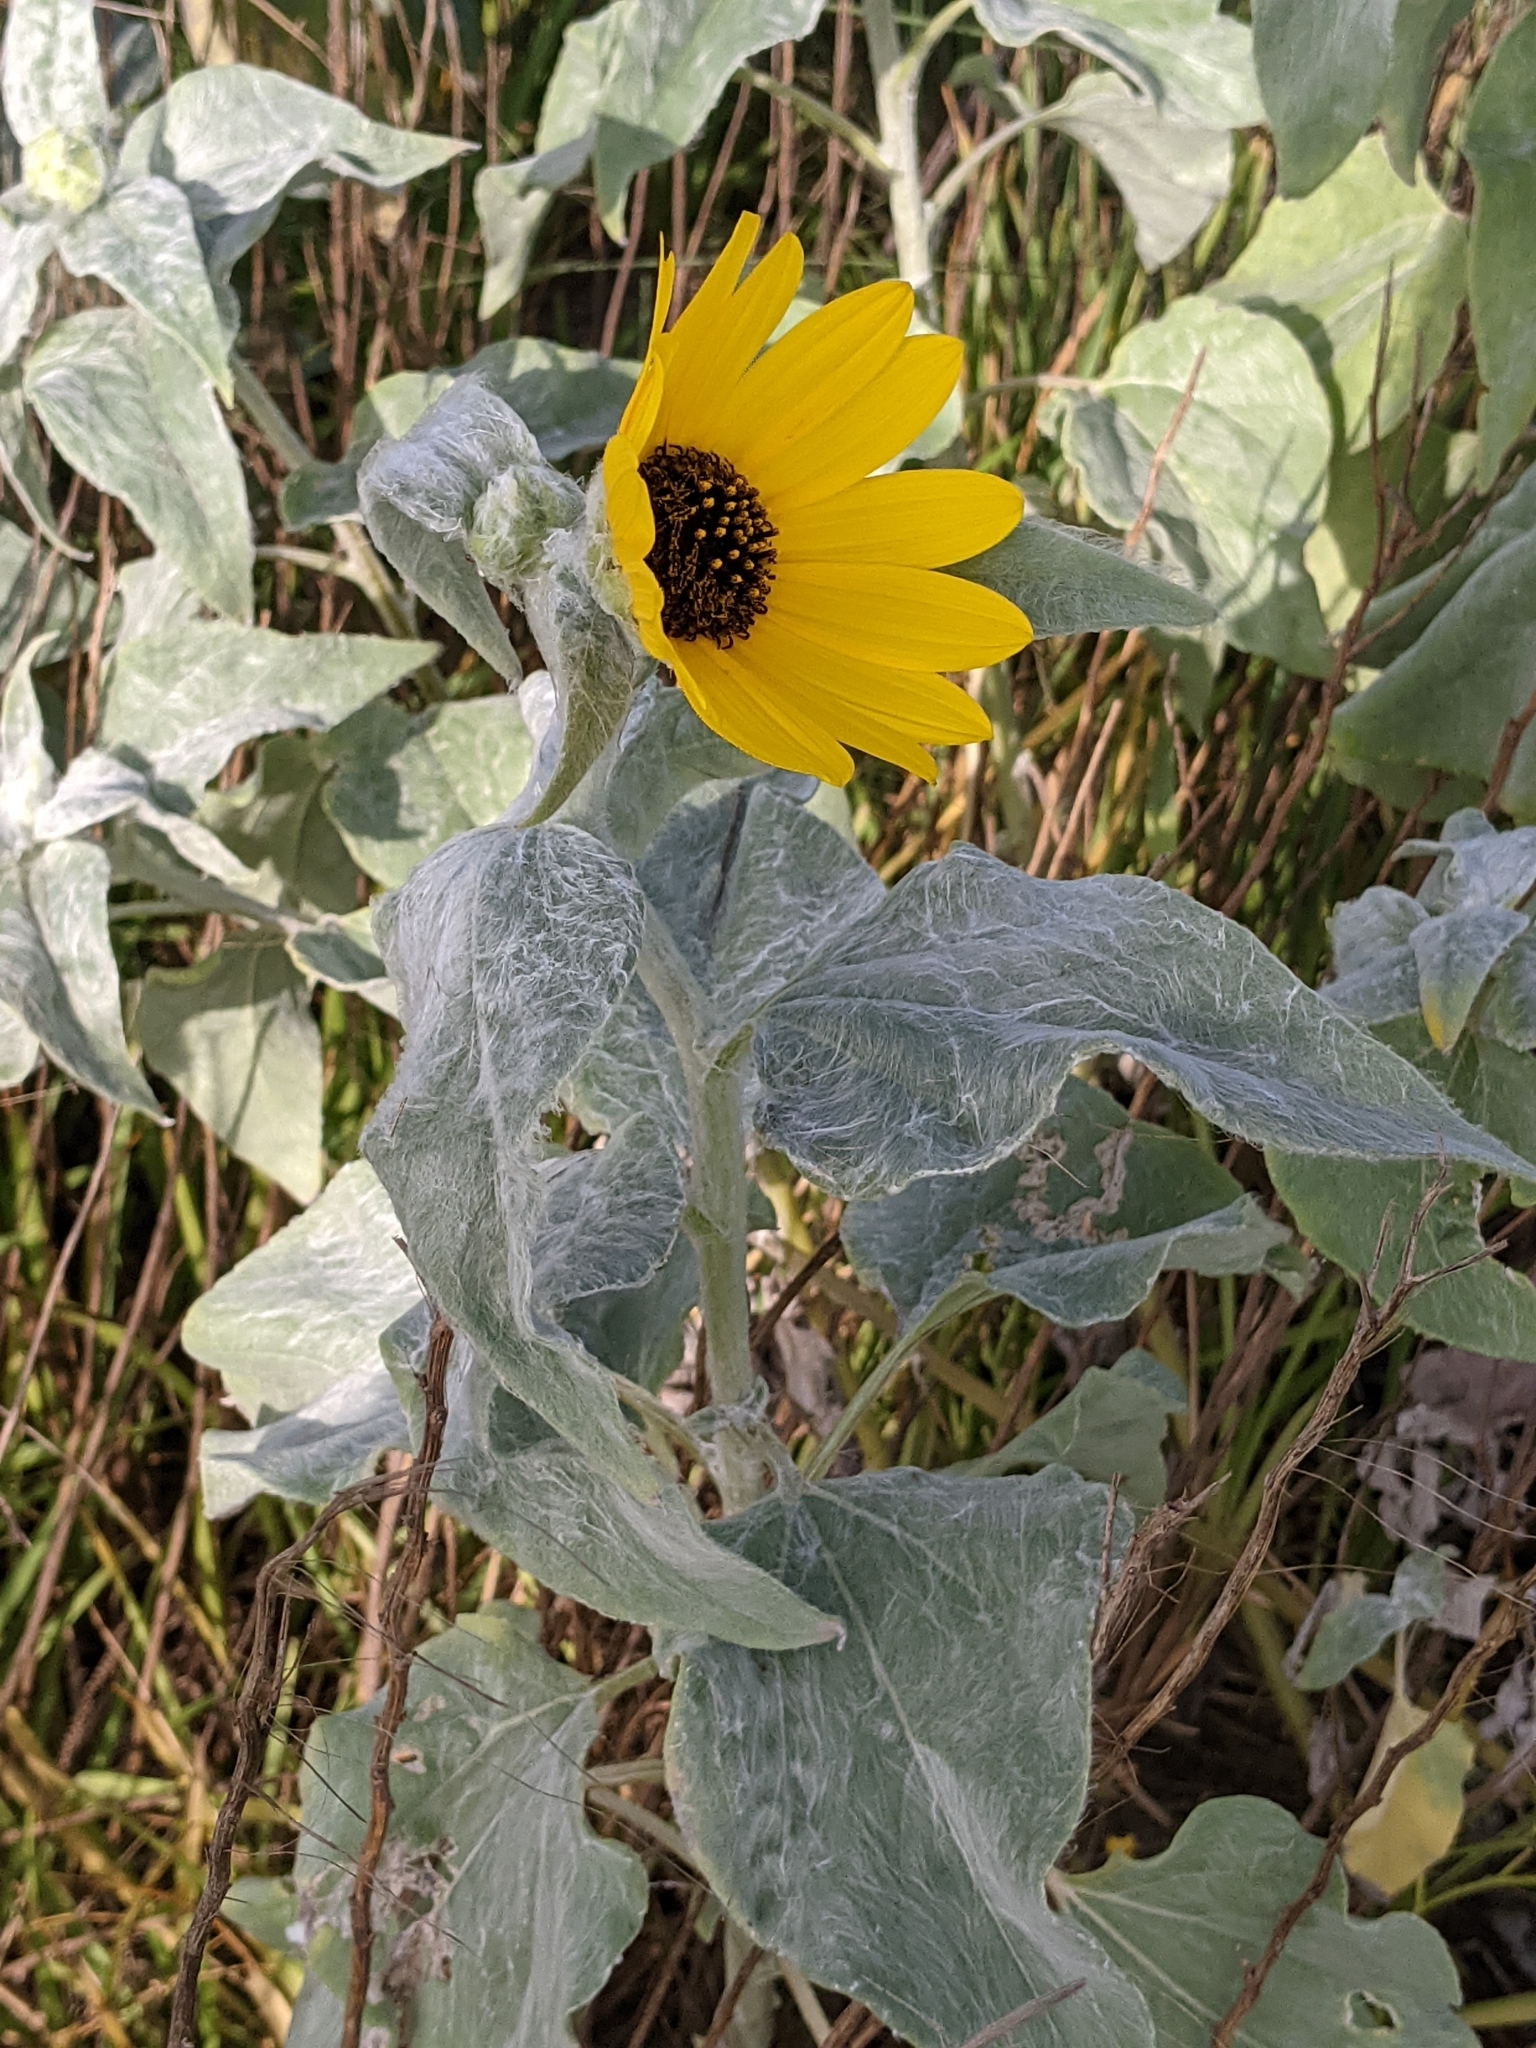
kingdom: Plantae
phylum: Tracheophyta
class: Magnoliopsida
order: Asterales
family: Asteraceae
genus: Helianthus
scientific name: Helianthus argophyllus
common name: Silverleaf sunflower
